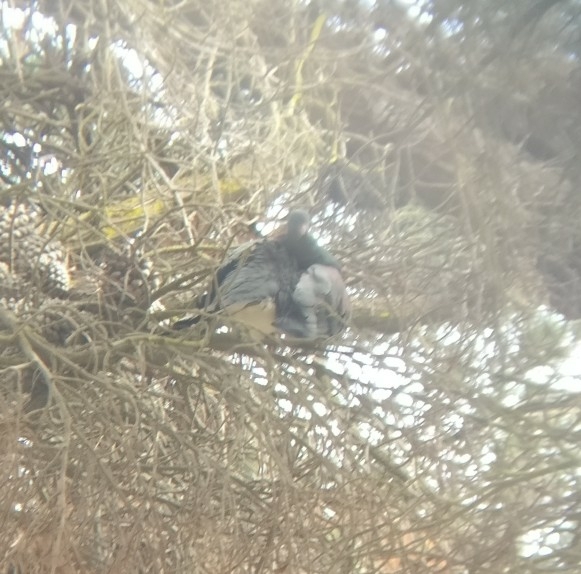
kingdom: Animalia
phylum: Chordata
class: Aves
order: Columbiformes
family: Columbidae
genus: Hemiphaga
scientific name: Hemiphaga novaeseelandiae
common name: New zealand pigeon
